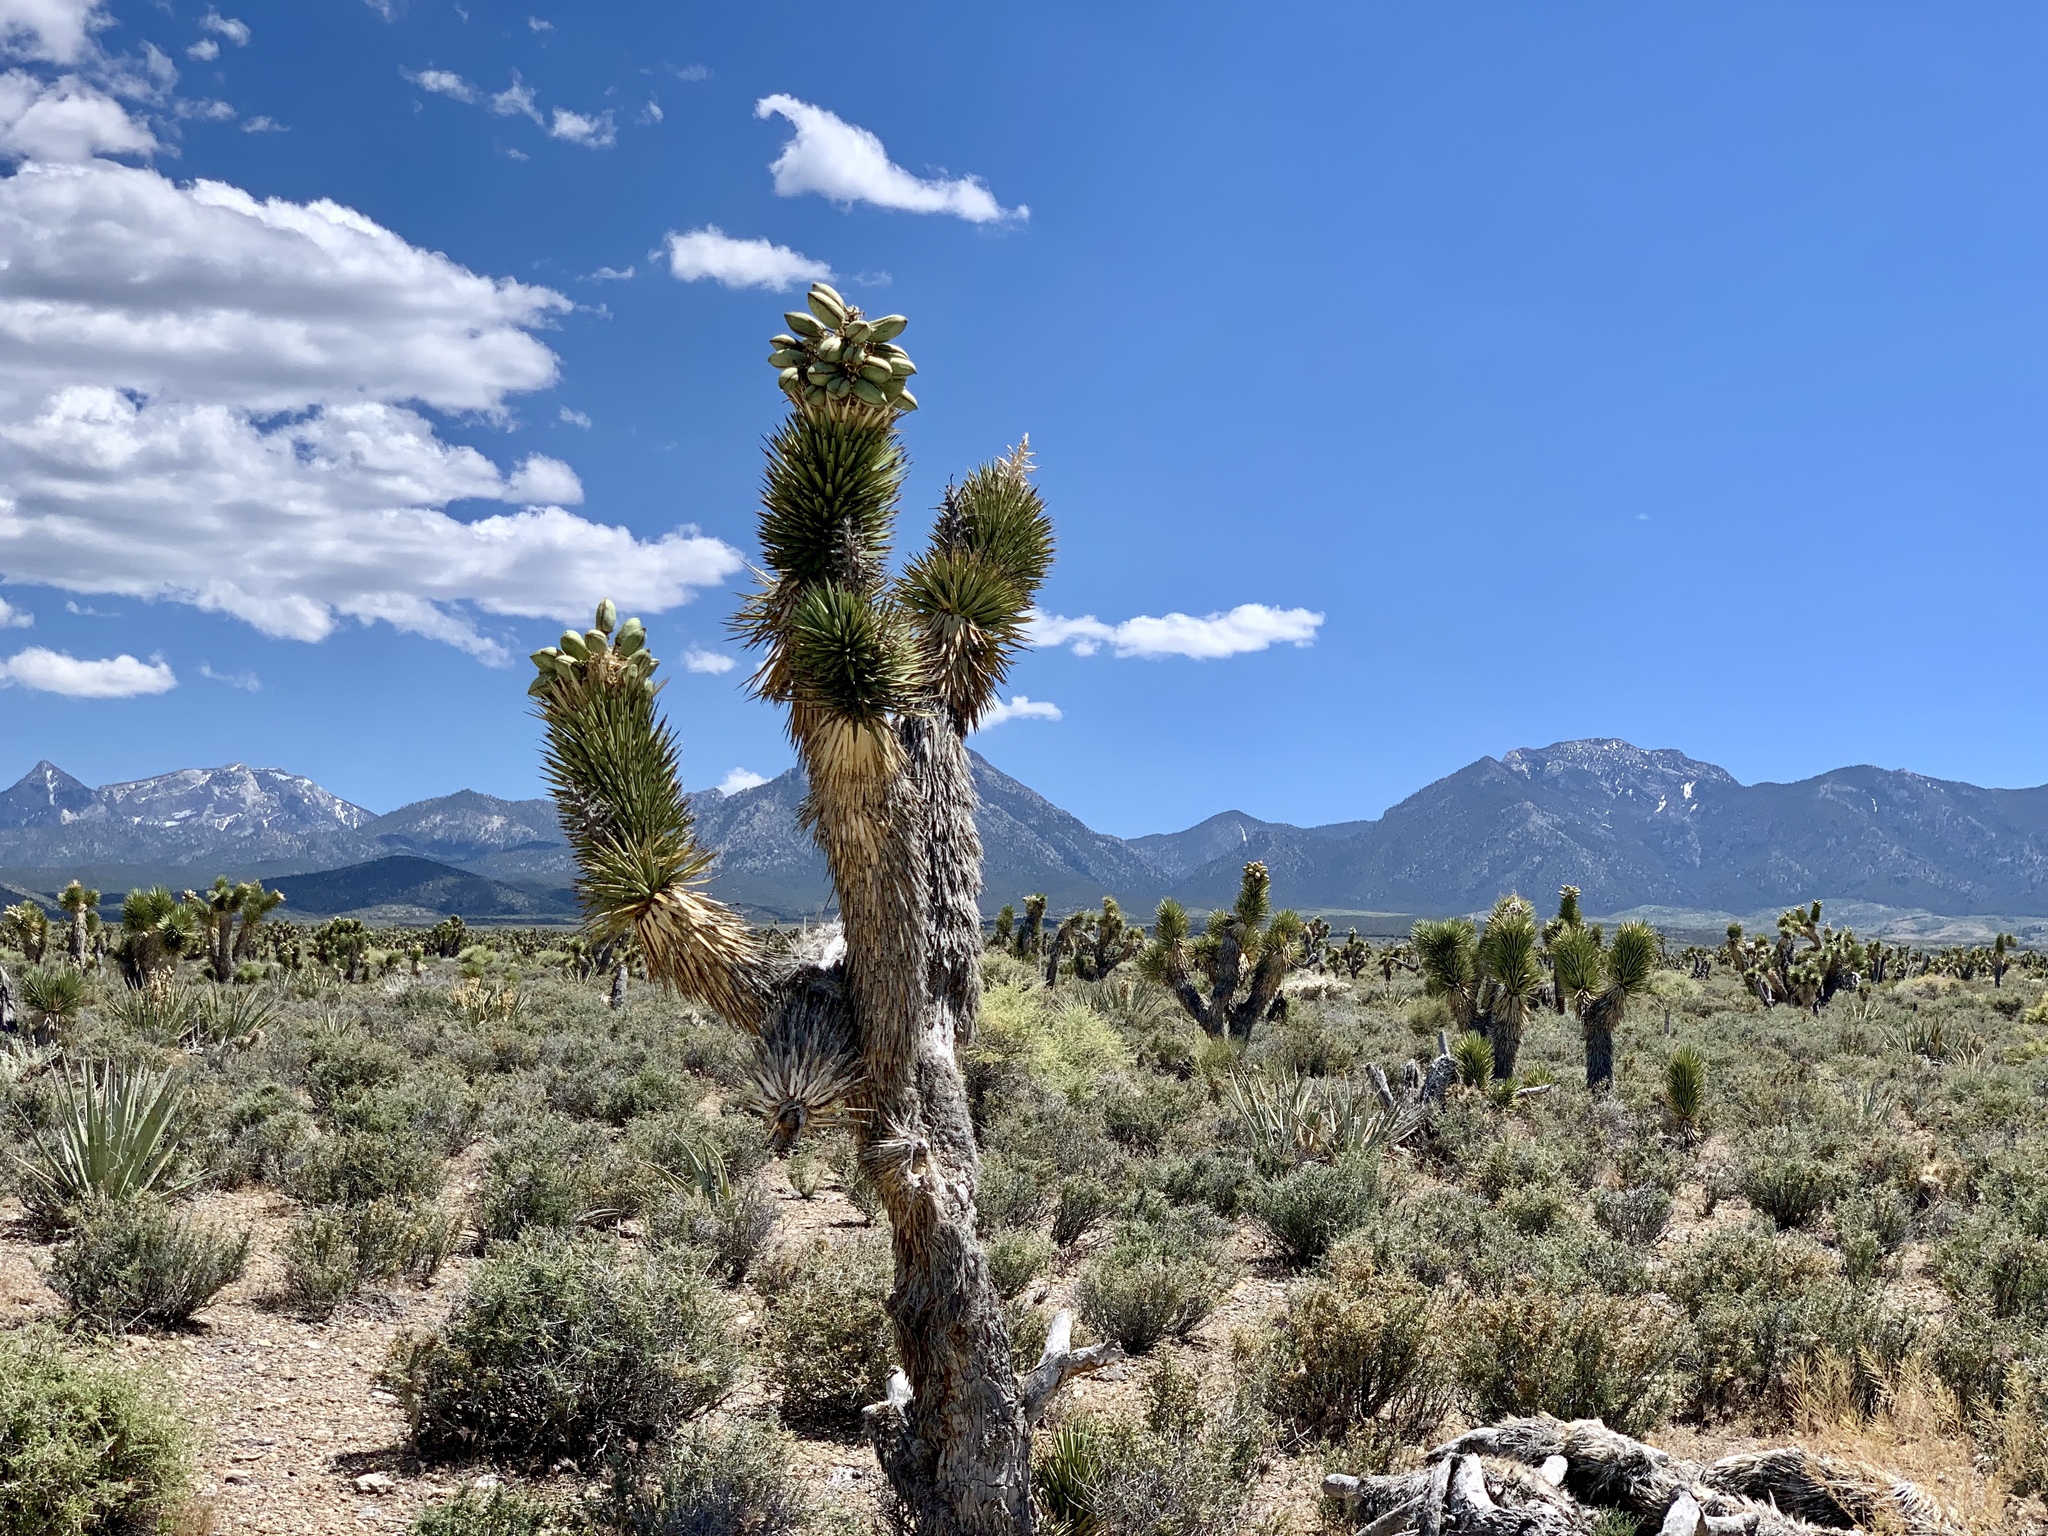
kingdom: Plantae
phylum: Tracheophyta
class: Liliopsida
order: Asparagales
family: Asparagaceae
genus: Yucca
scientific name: Yucca brevifolia
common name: Joshua tree
